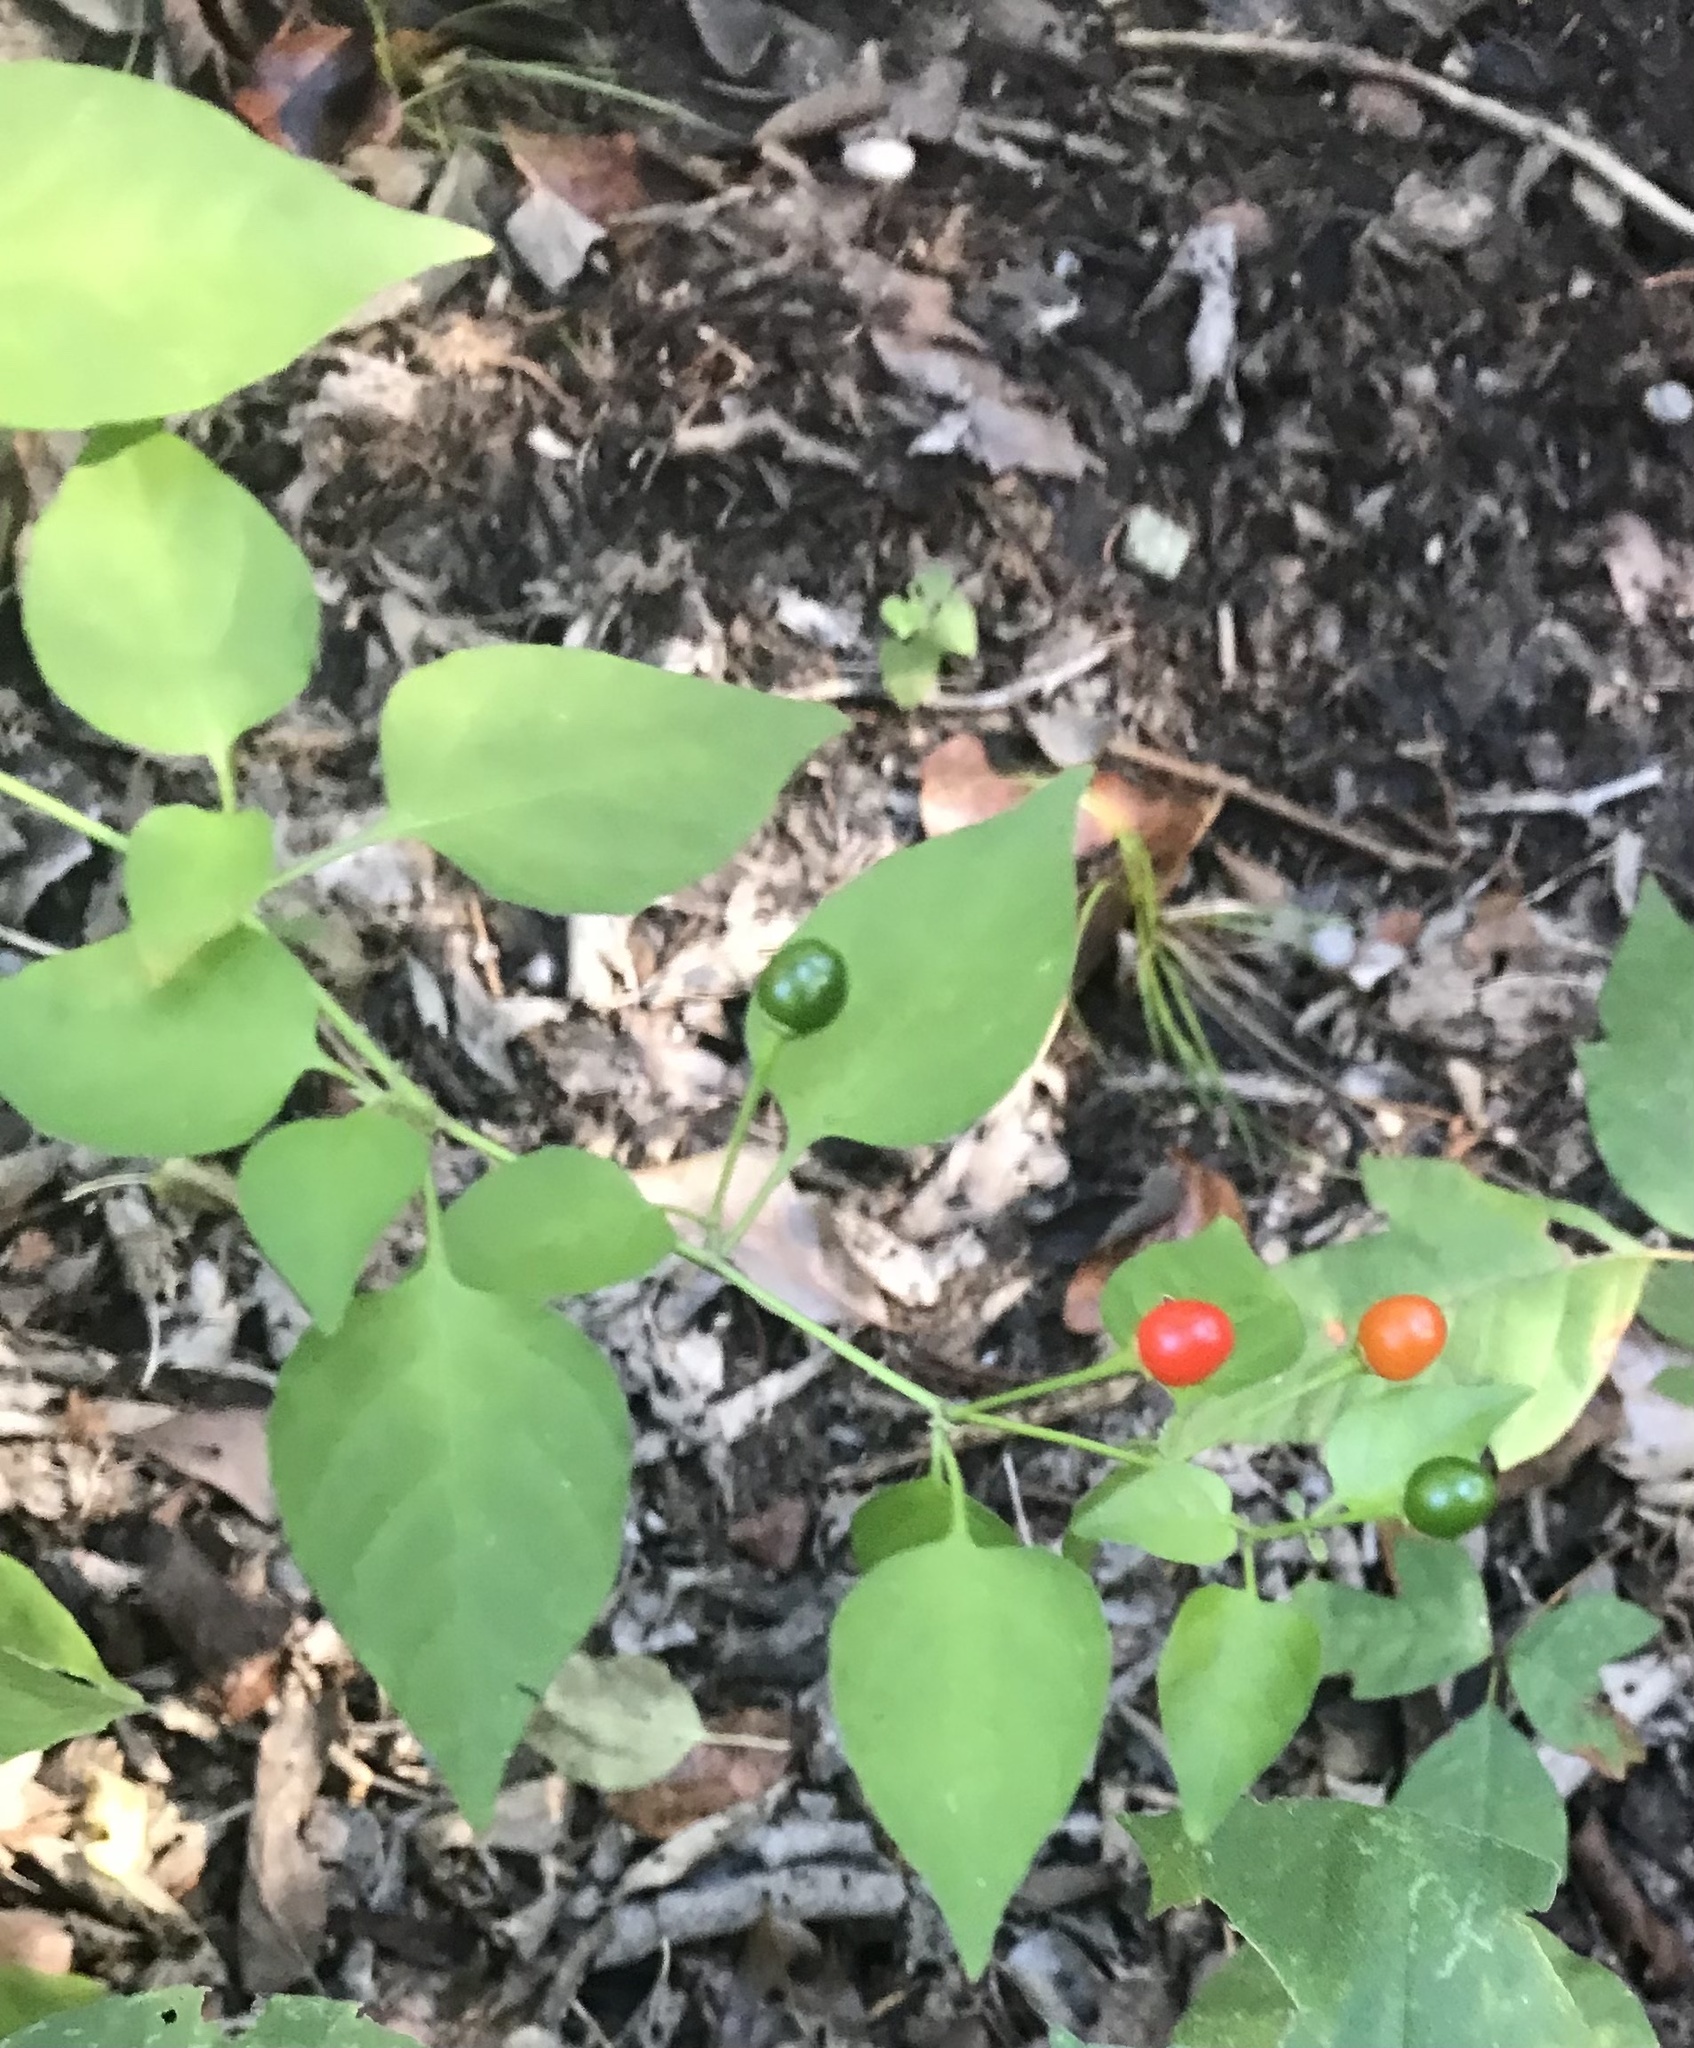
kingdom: Plantae
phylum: Tracheophyta
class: Magnoliopsida
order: Solanales
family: Solanaceae
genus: Capsicum
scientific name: Capsicum annuum
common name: Sweet pepper
